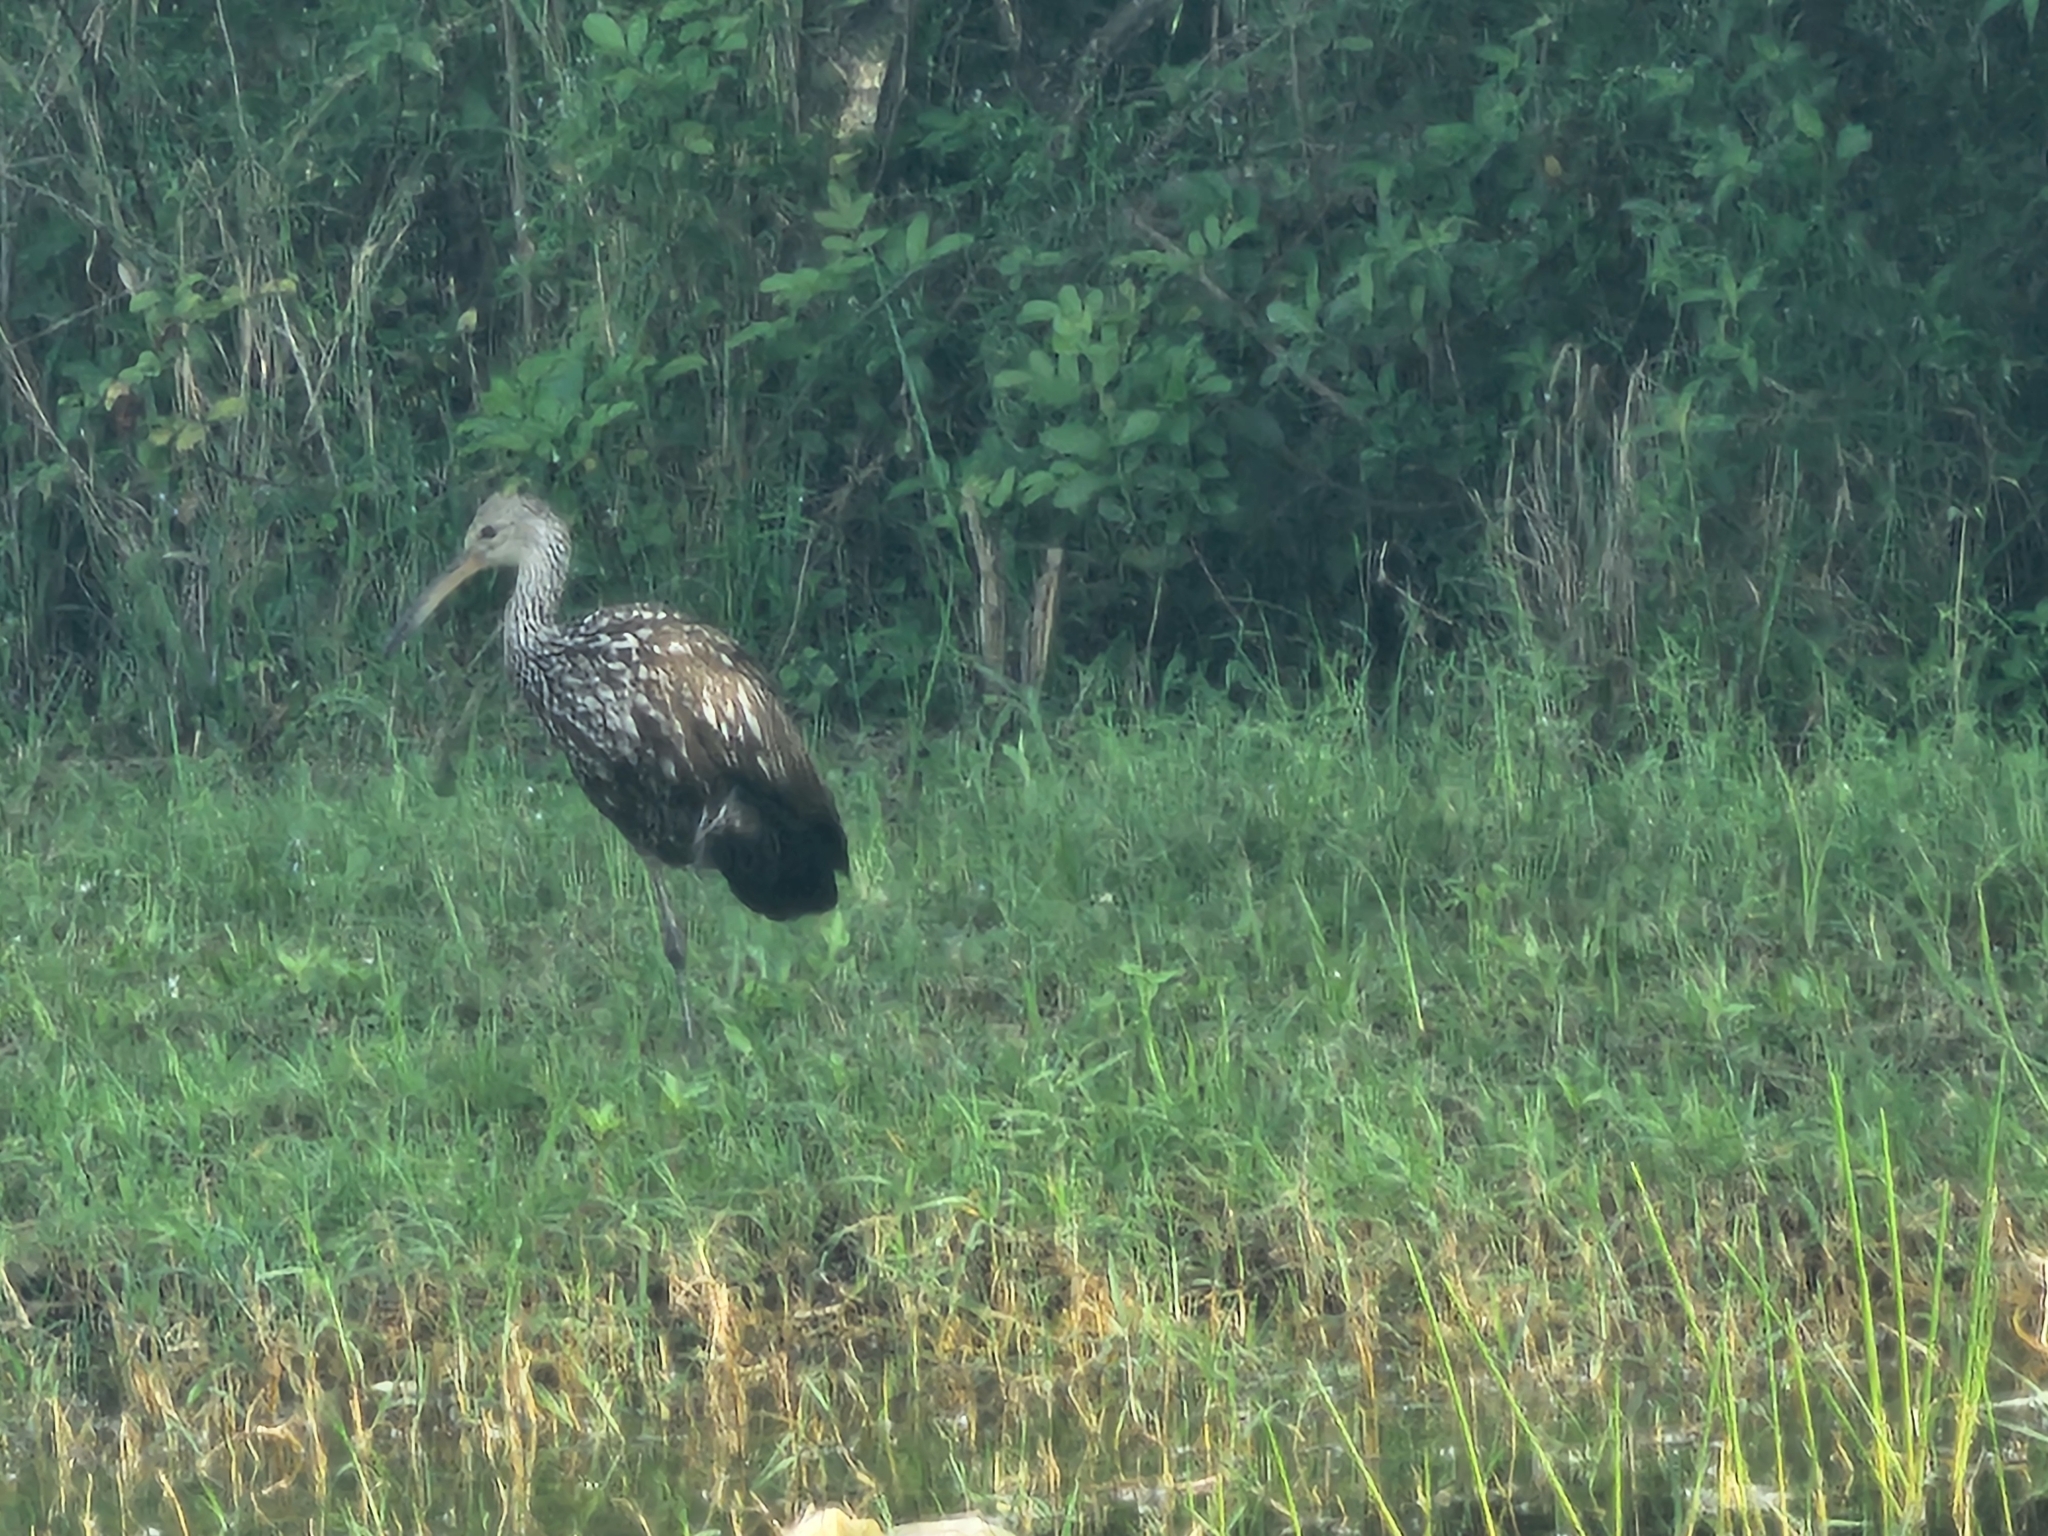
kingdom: Animalia
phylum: Chordata
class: Aves
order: Gruiformes
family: Aramidae
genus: Aramus
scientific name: Aramus guarauna
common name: Limpkin
